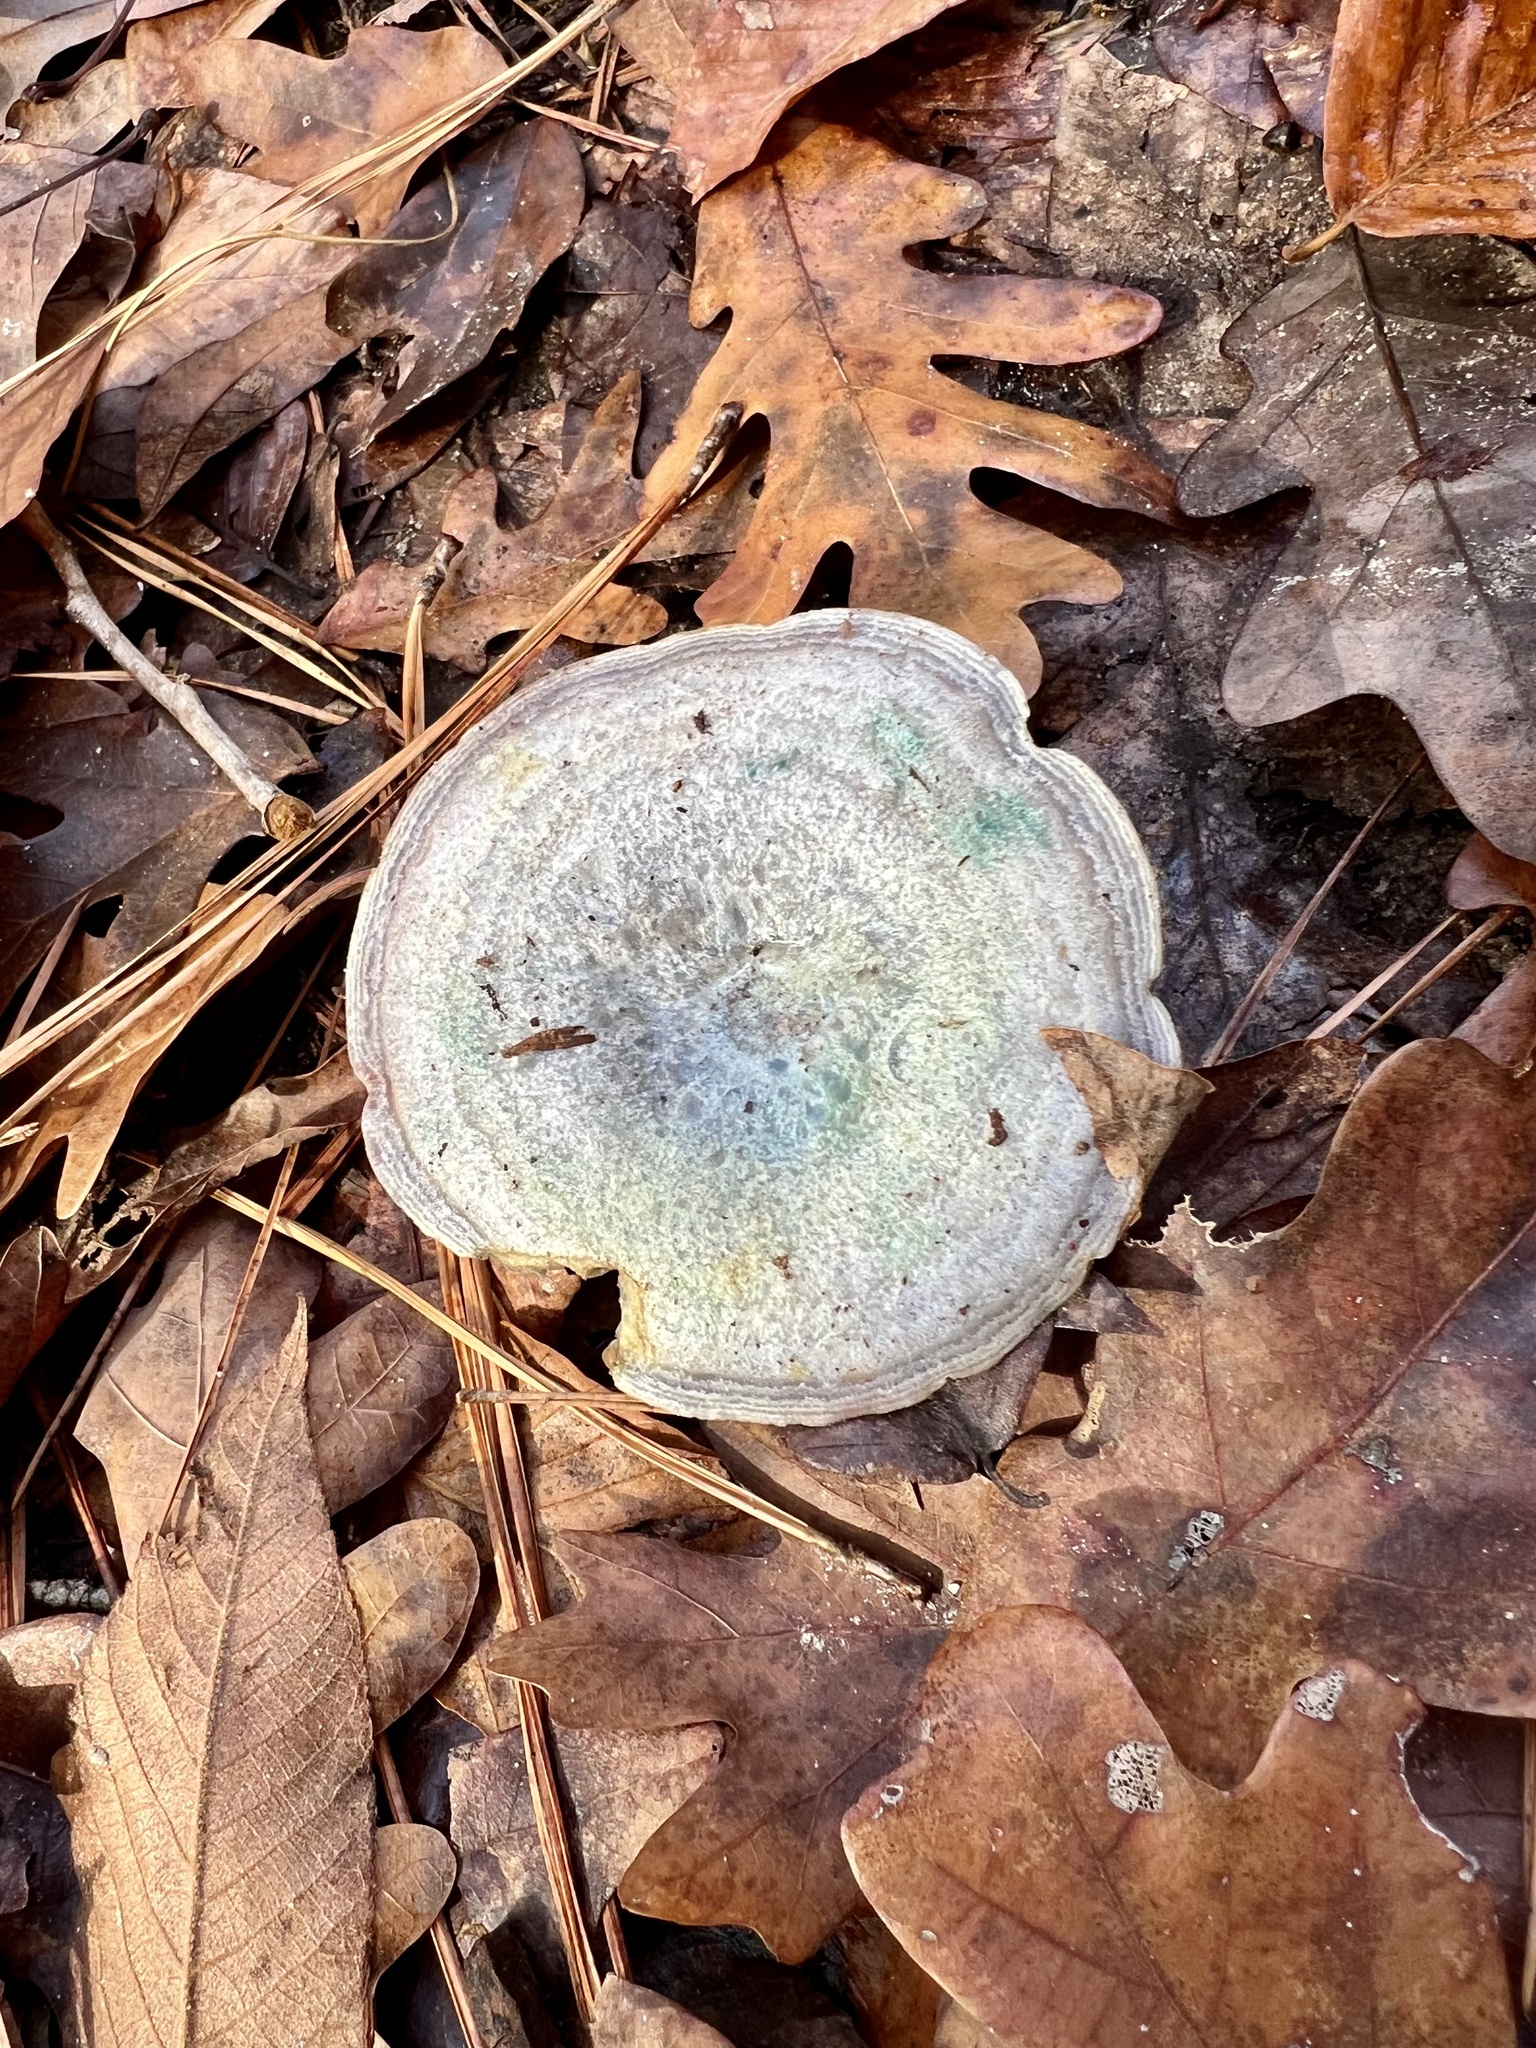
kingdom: Fungi
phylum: Basidiomycota
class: Agaricomycetes
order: Russulales
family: Russulaceae
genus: Lactarius
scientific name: Lactarius paradoxus
